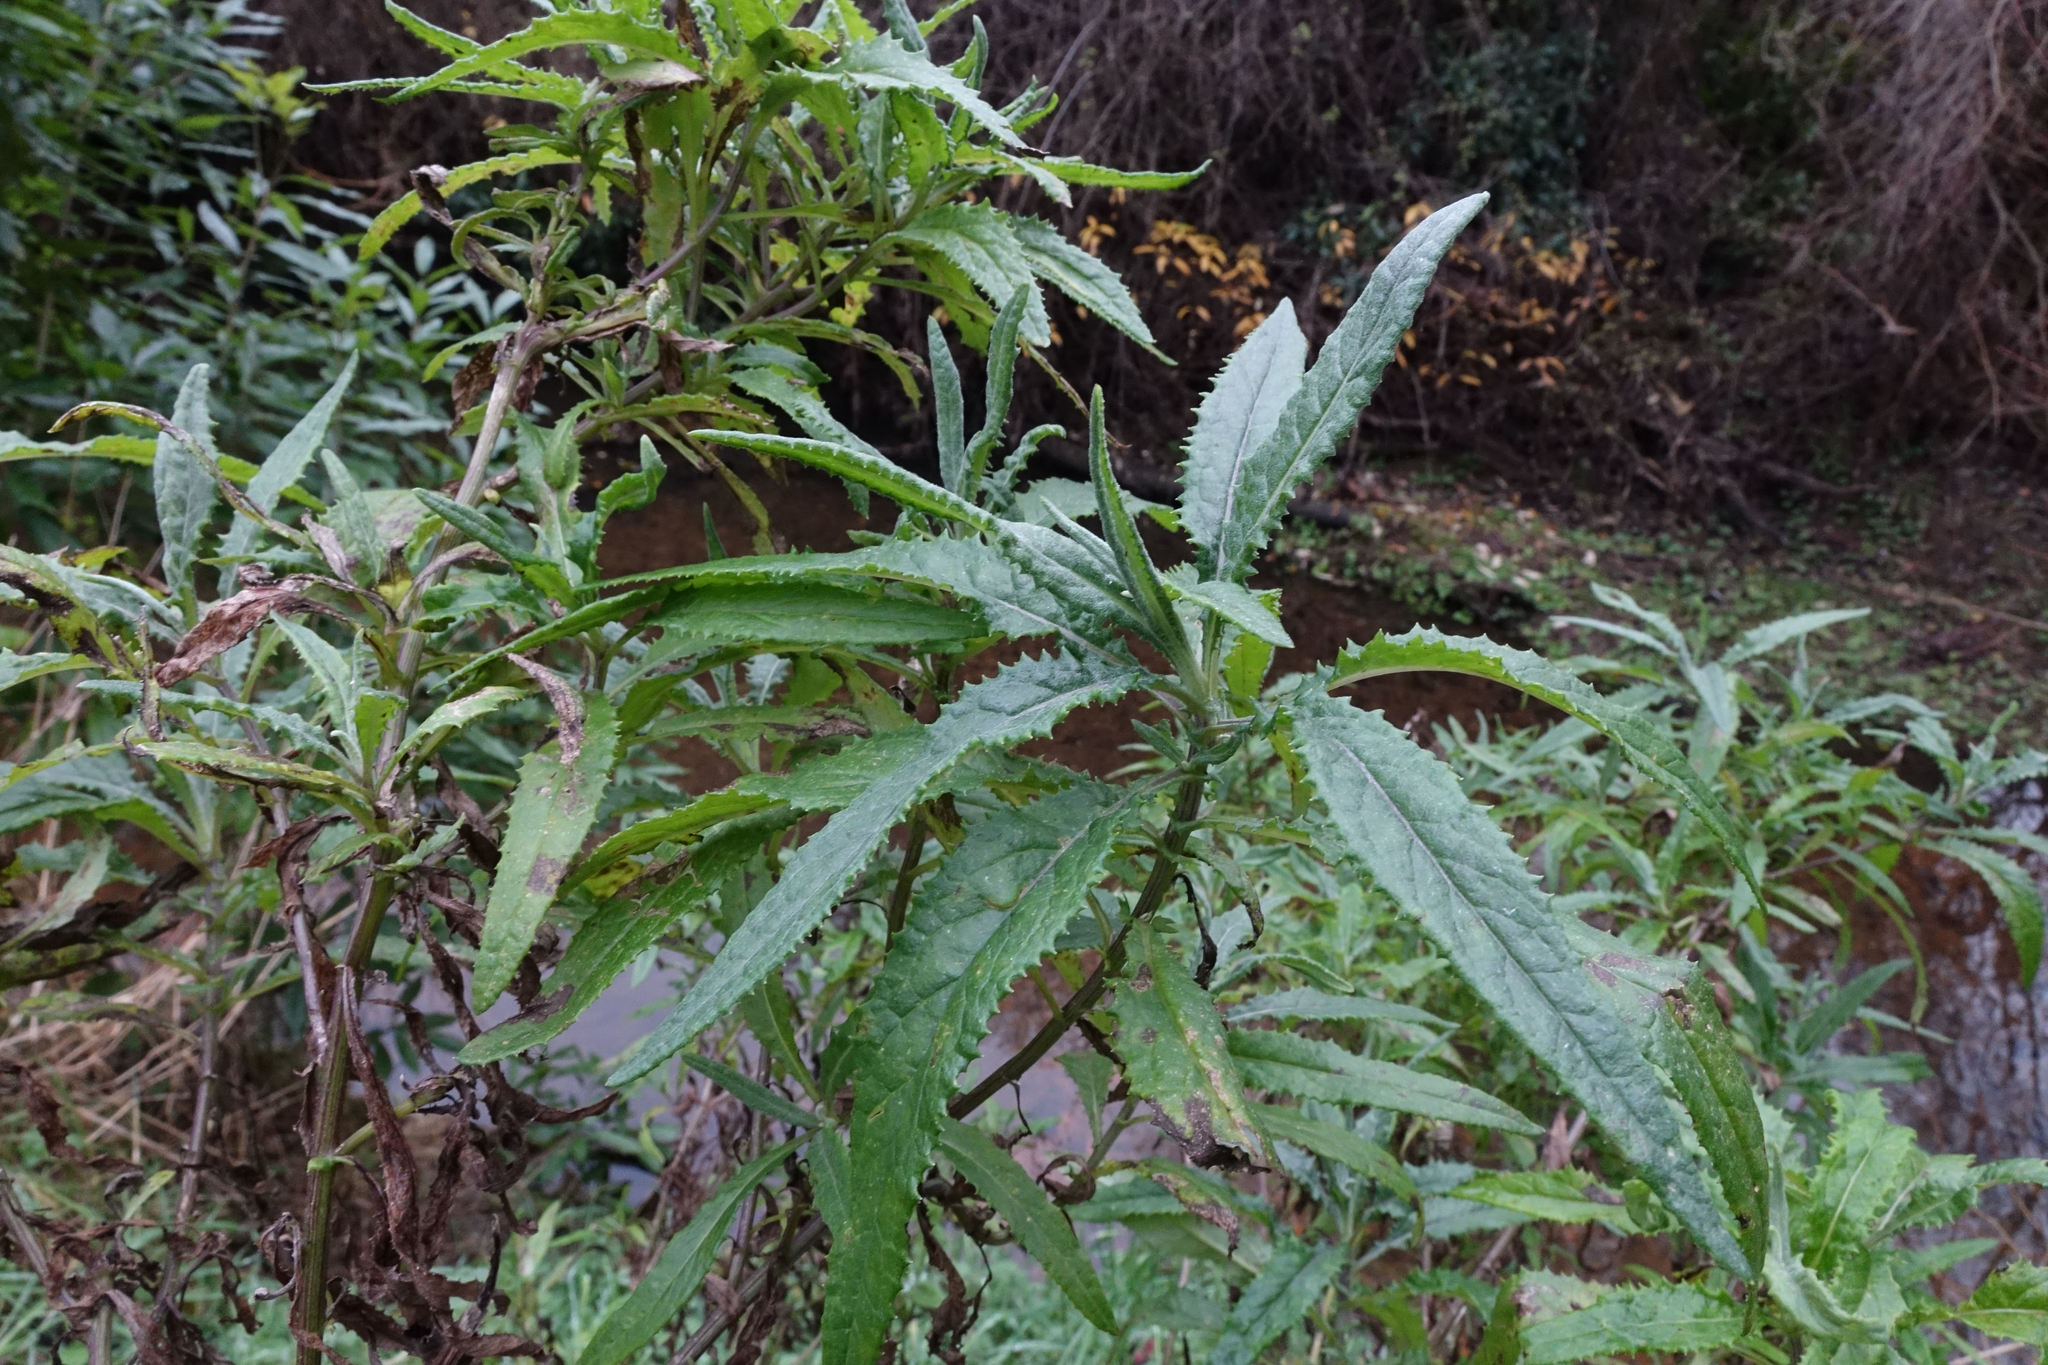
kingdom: Plantae
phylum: Tracheophyta
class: Magnoliopsida
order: Asterales
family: Asteraceae
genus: Senecio
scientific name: Senecio minimus
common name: Toothed fireweed
